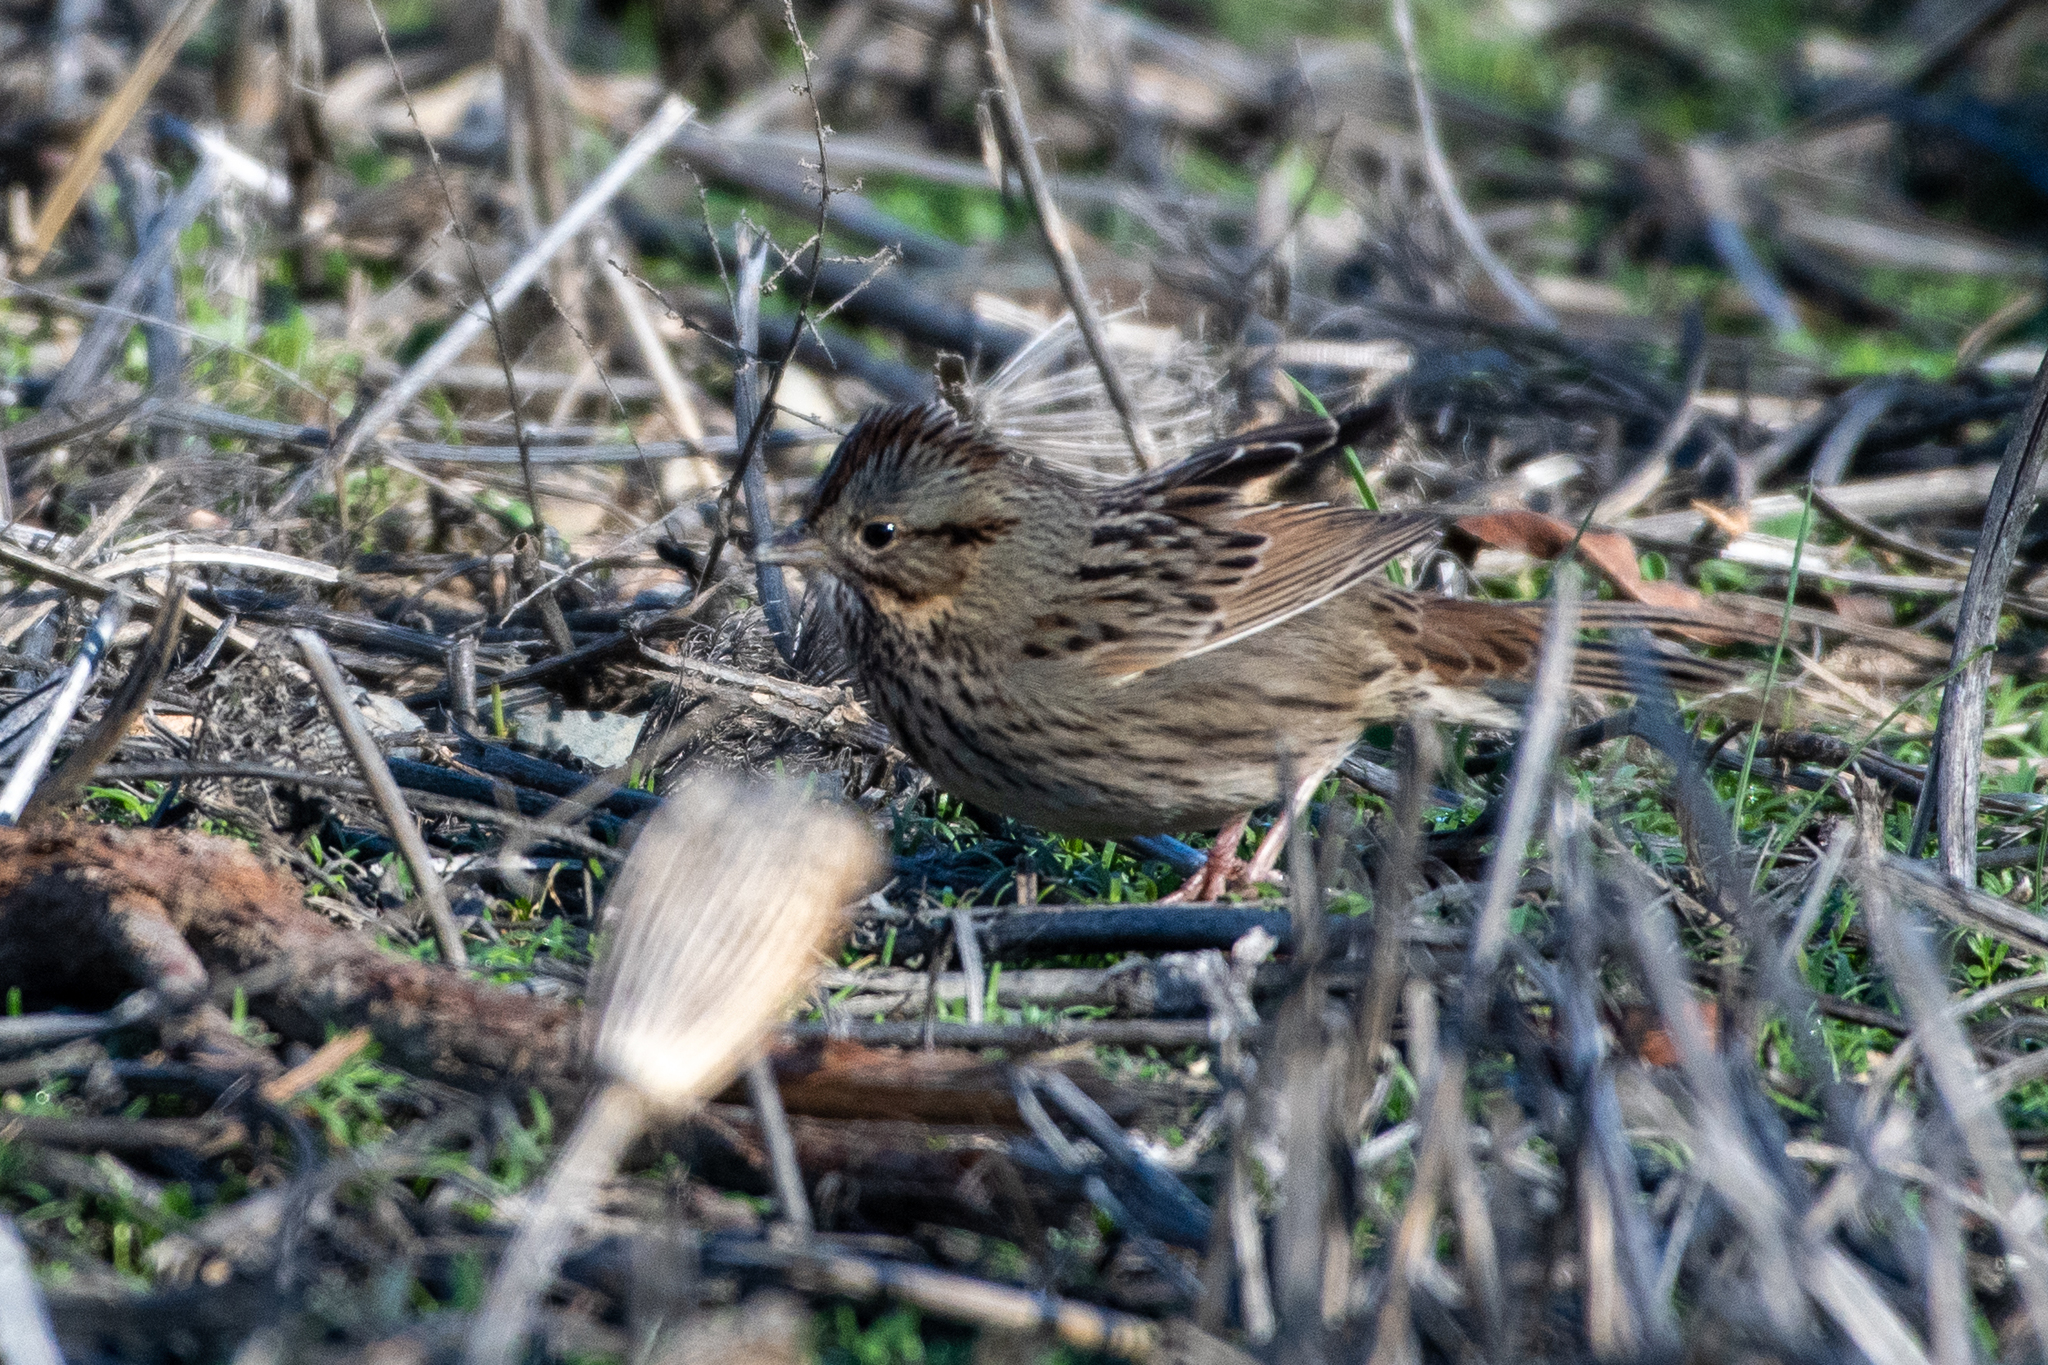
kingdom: Animalia
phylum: Chordata
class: Aves
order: Passeriformes
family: Passerellidae
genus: Melospiza
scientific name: Melospiza lincolnii
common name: Lincoln's sparrow
